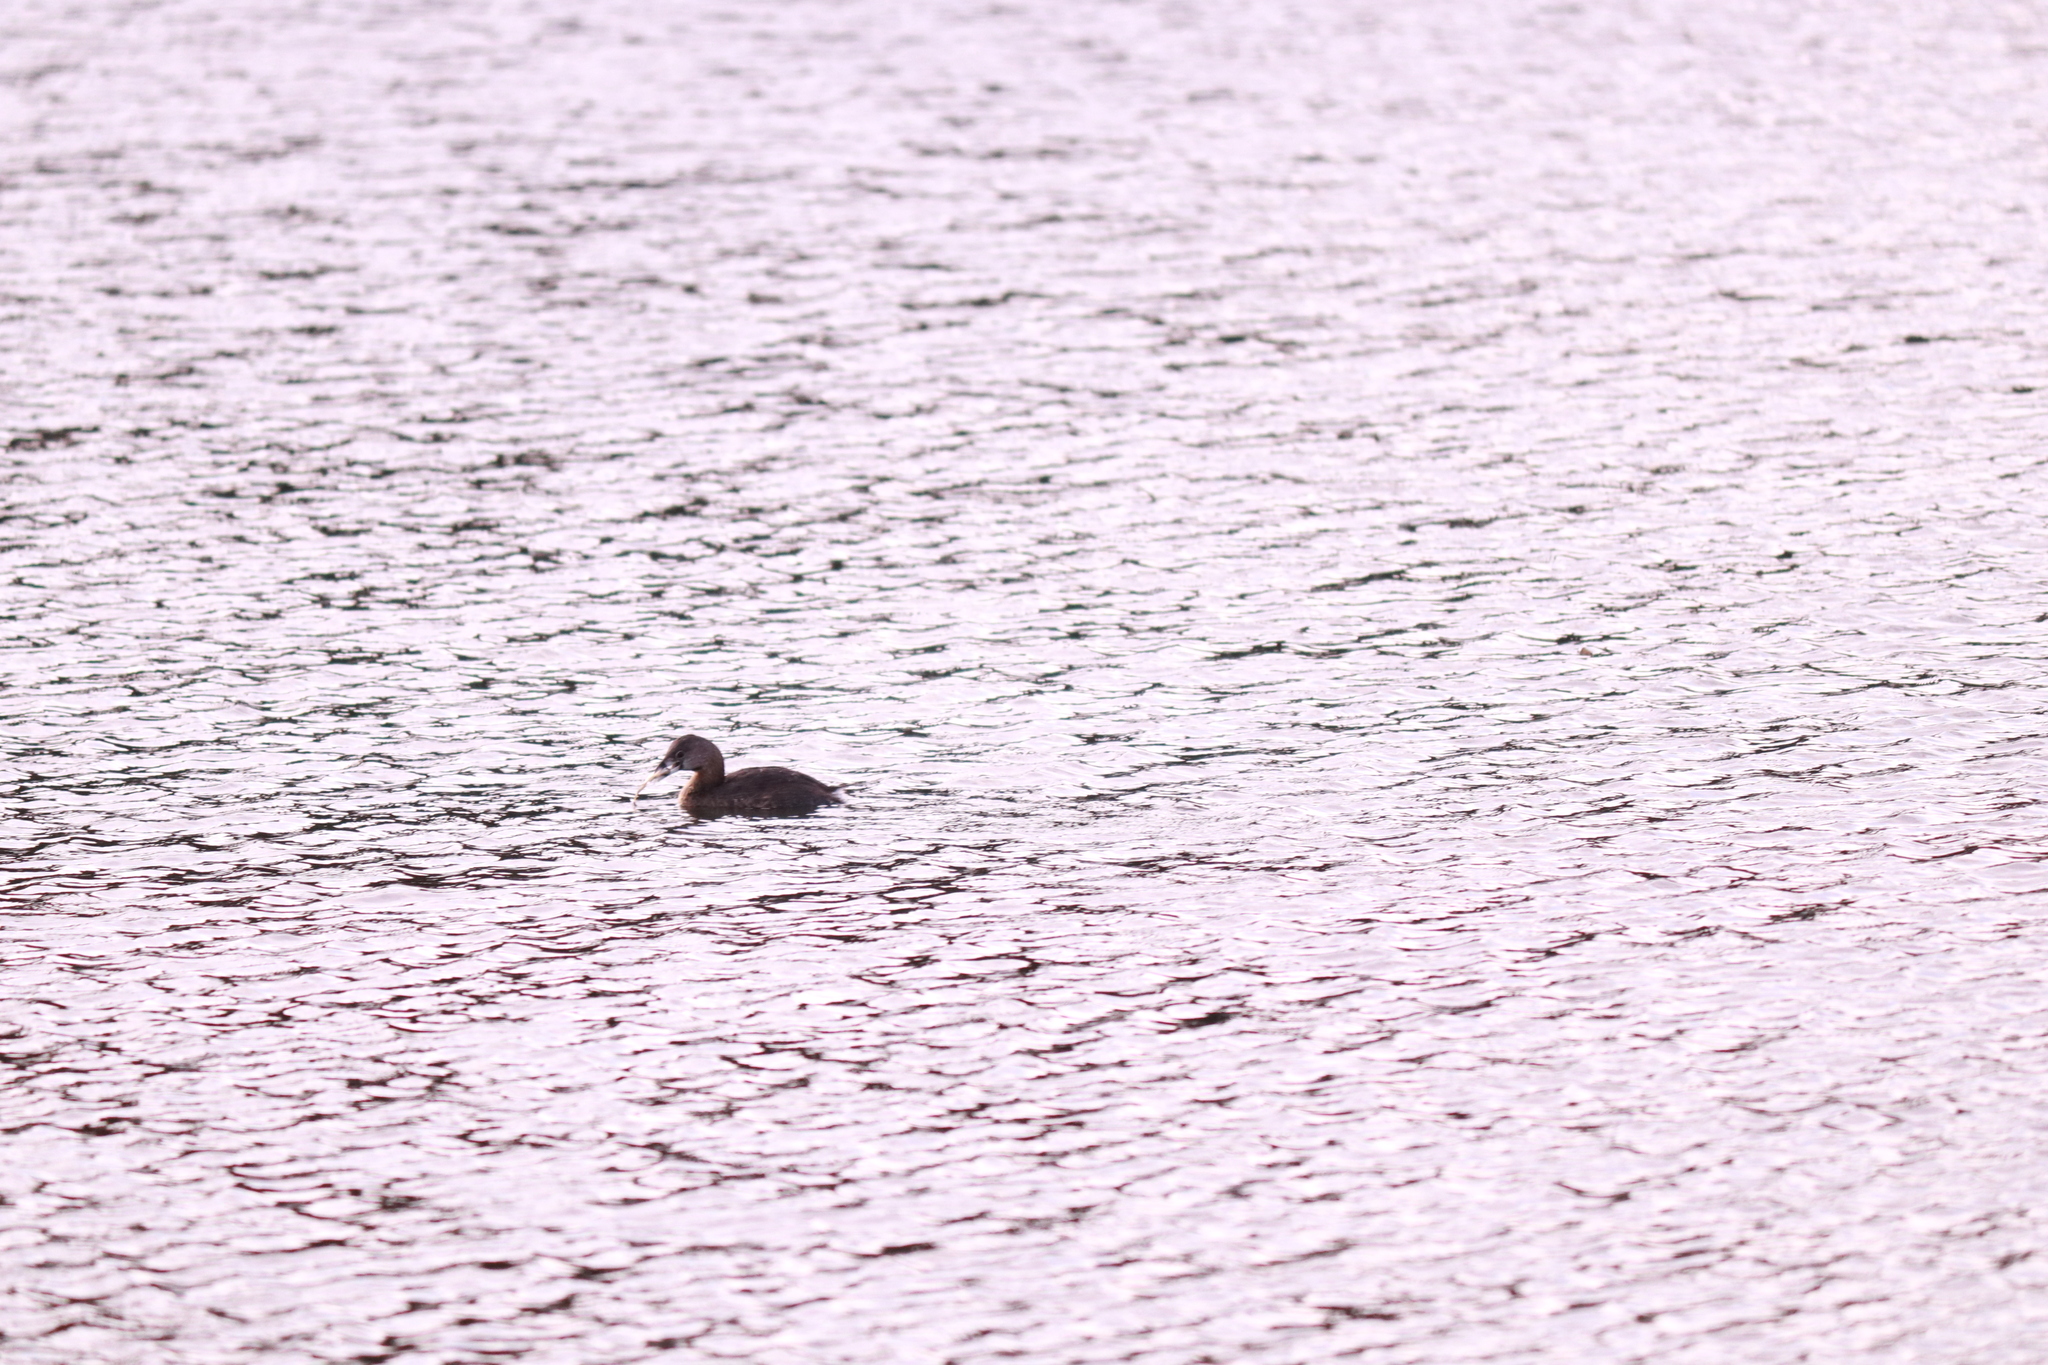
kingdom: Animalia
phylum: Chordata
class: Aves
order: Podicipediformes
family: Podicipedidae
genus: Podilymbus
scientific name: Podilymbus podiceps
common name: Pied-billed grebe
